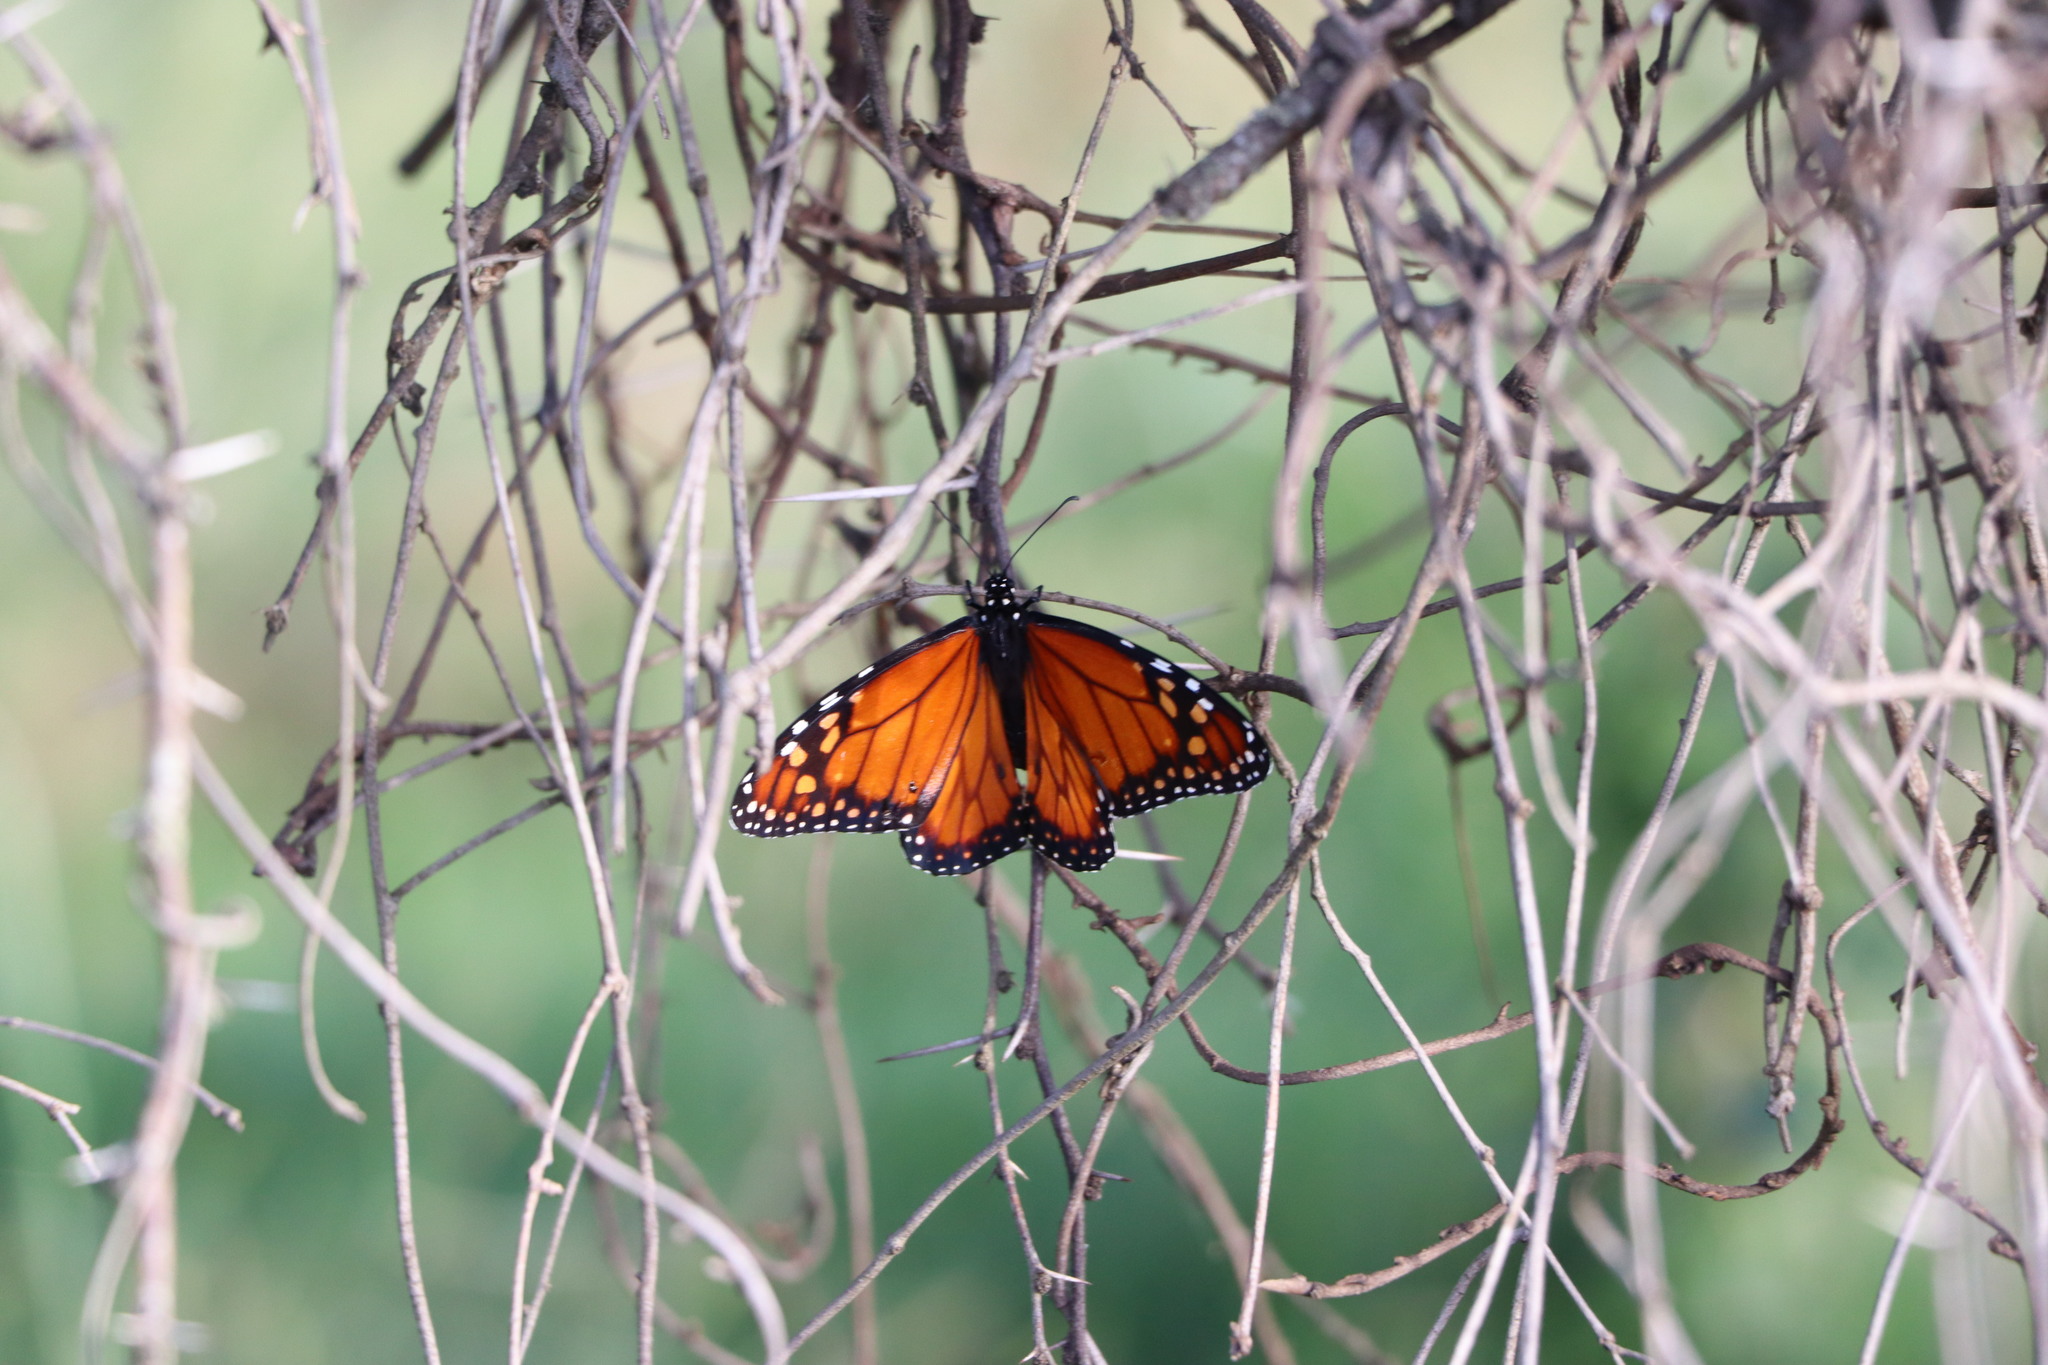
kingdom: Animalia
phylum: Arthropoda
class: Insecta
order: Lepidoptera
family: Nymphalidae
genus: Danaus
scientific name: Danaus erippus
